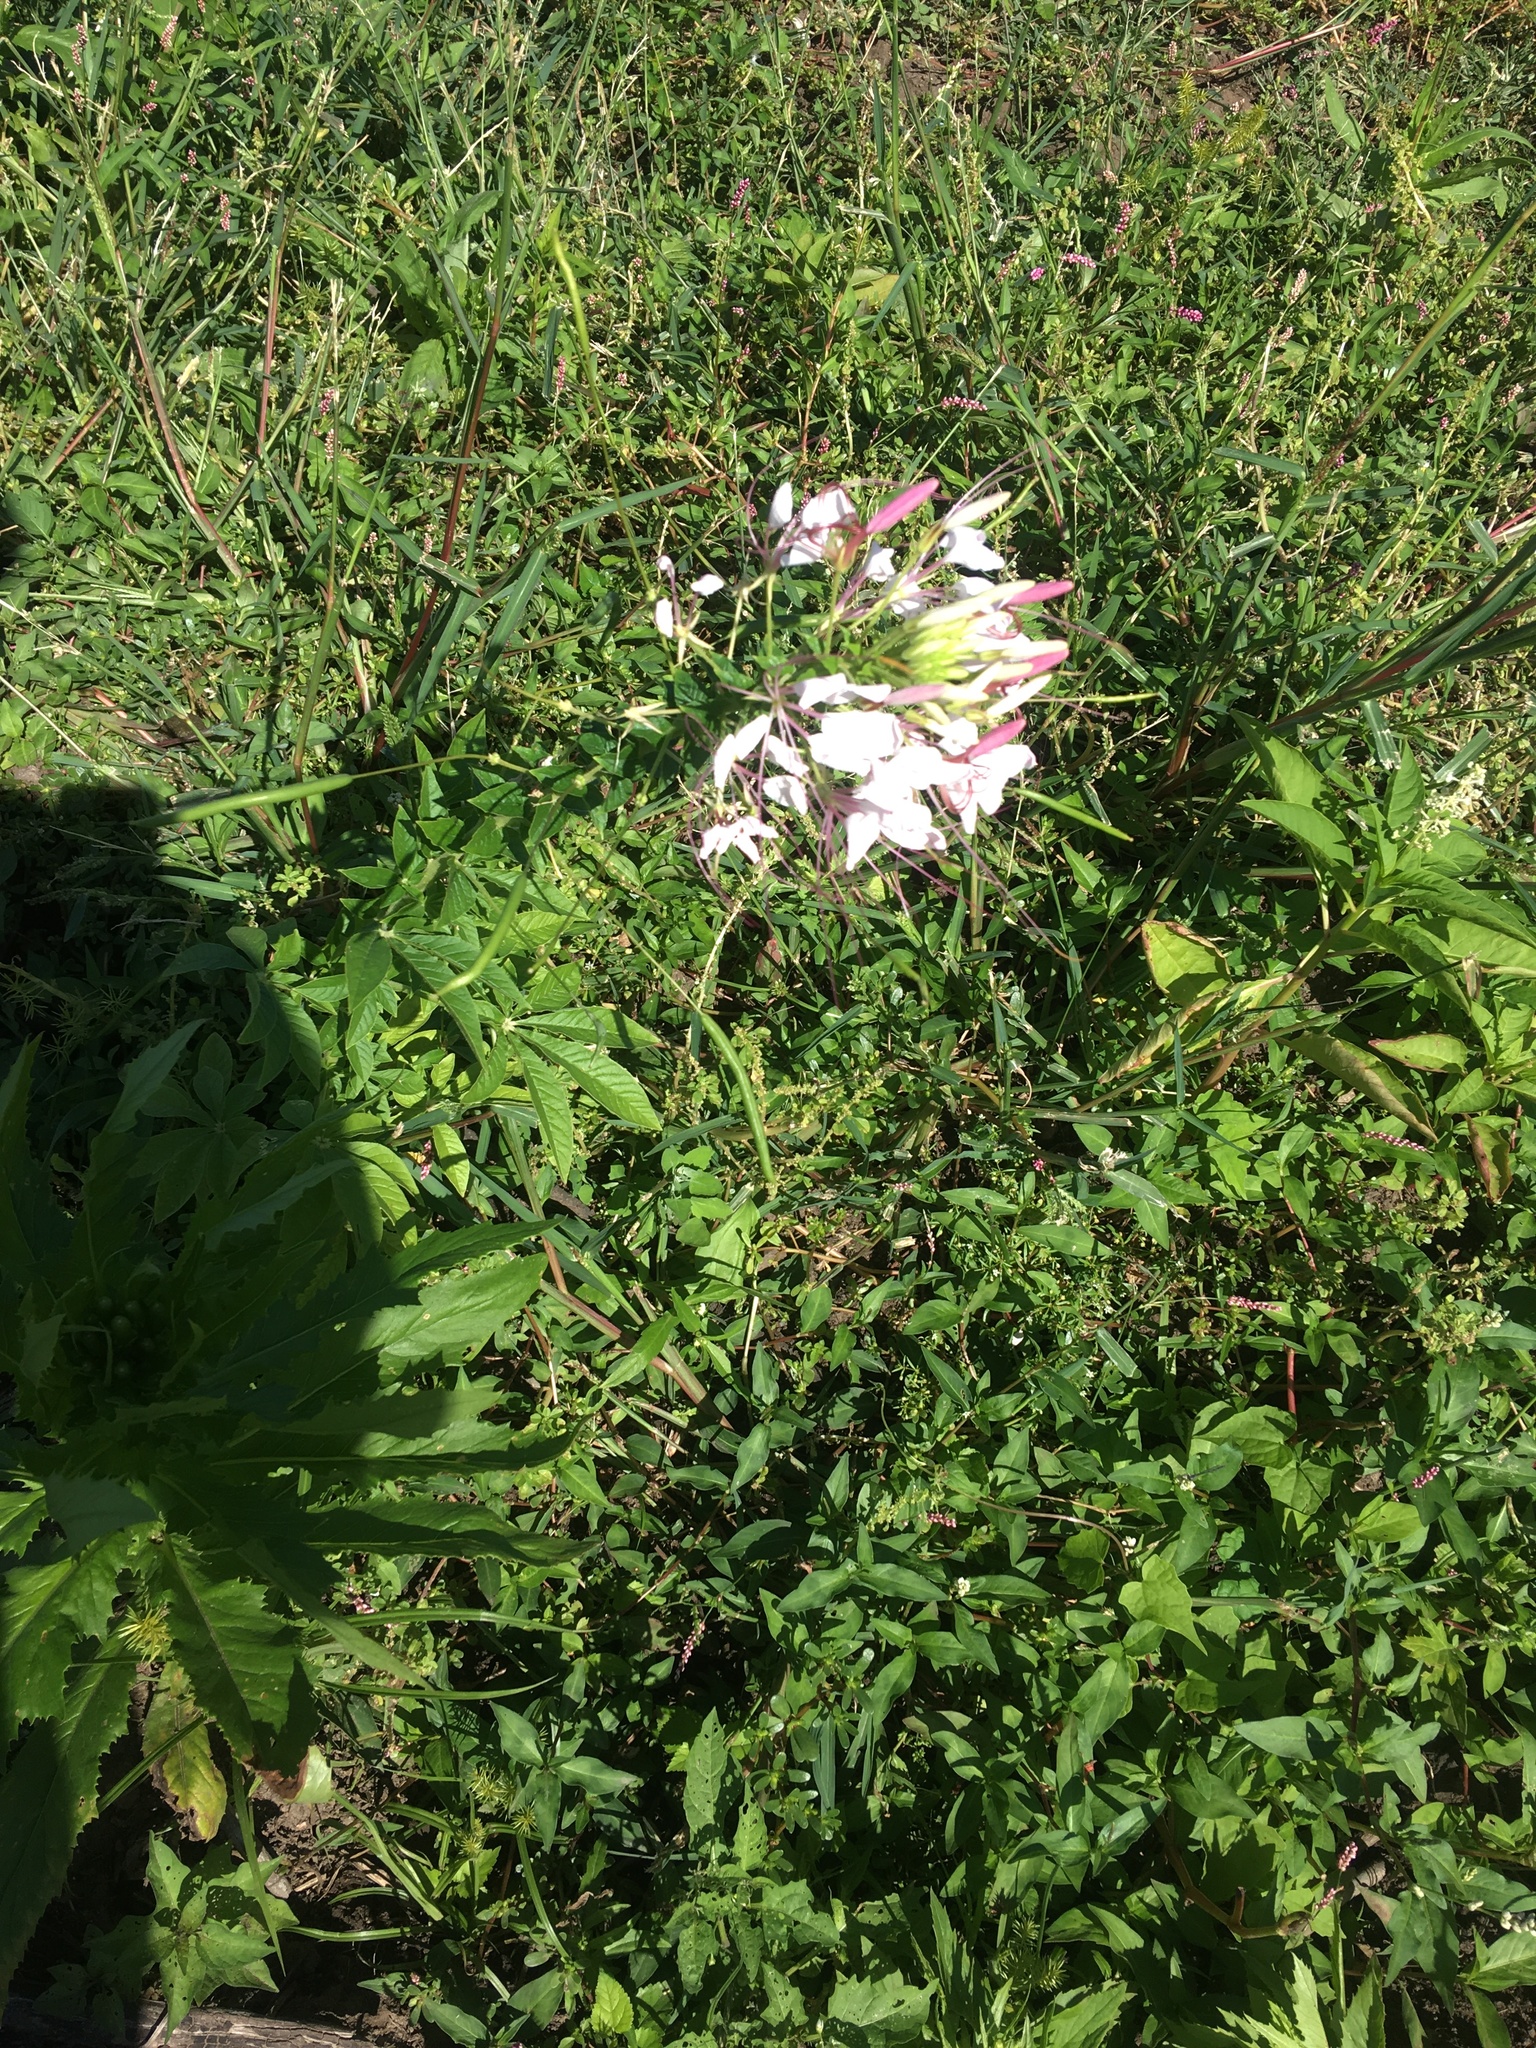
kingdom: Plantae
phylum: Tracheophyta
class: Magnoliopsida
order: Brassicales
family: Cleomaceae
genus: Tarenaya
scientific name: Tarenaya houtteana
